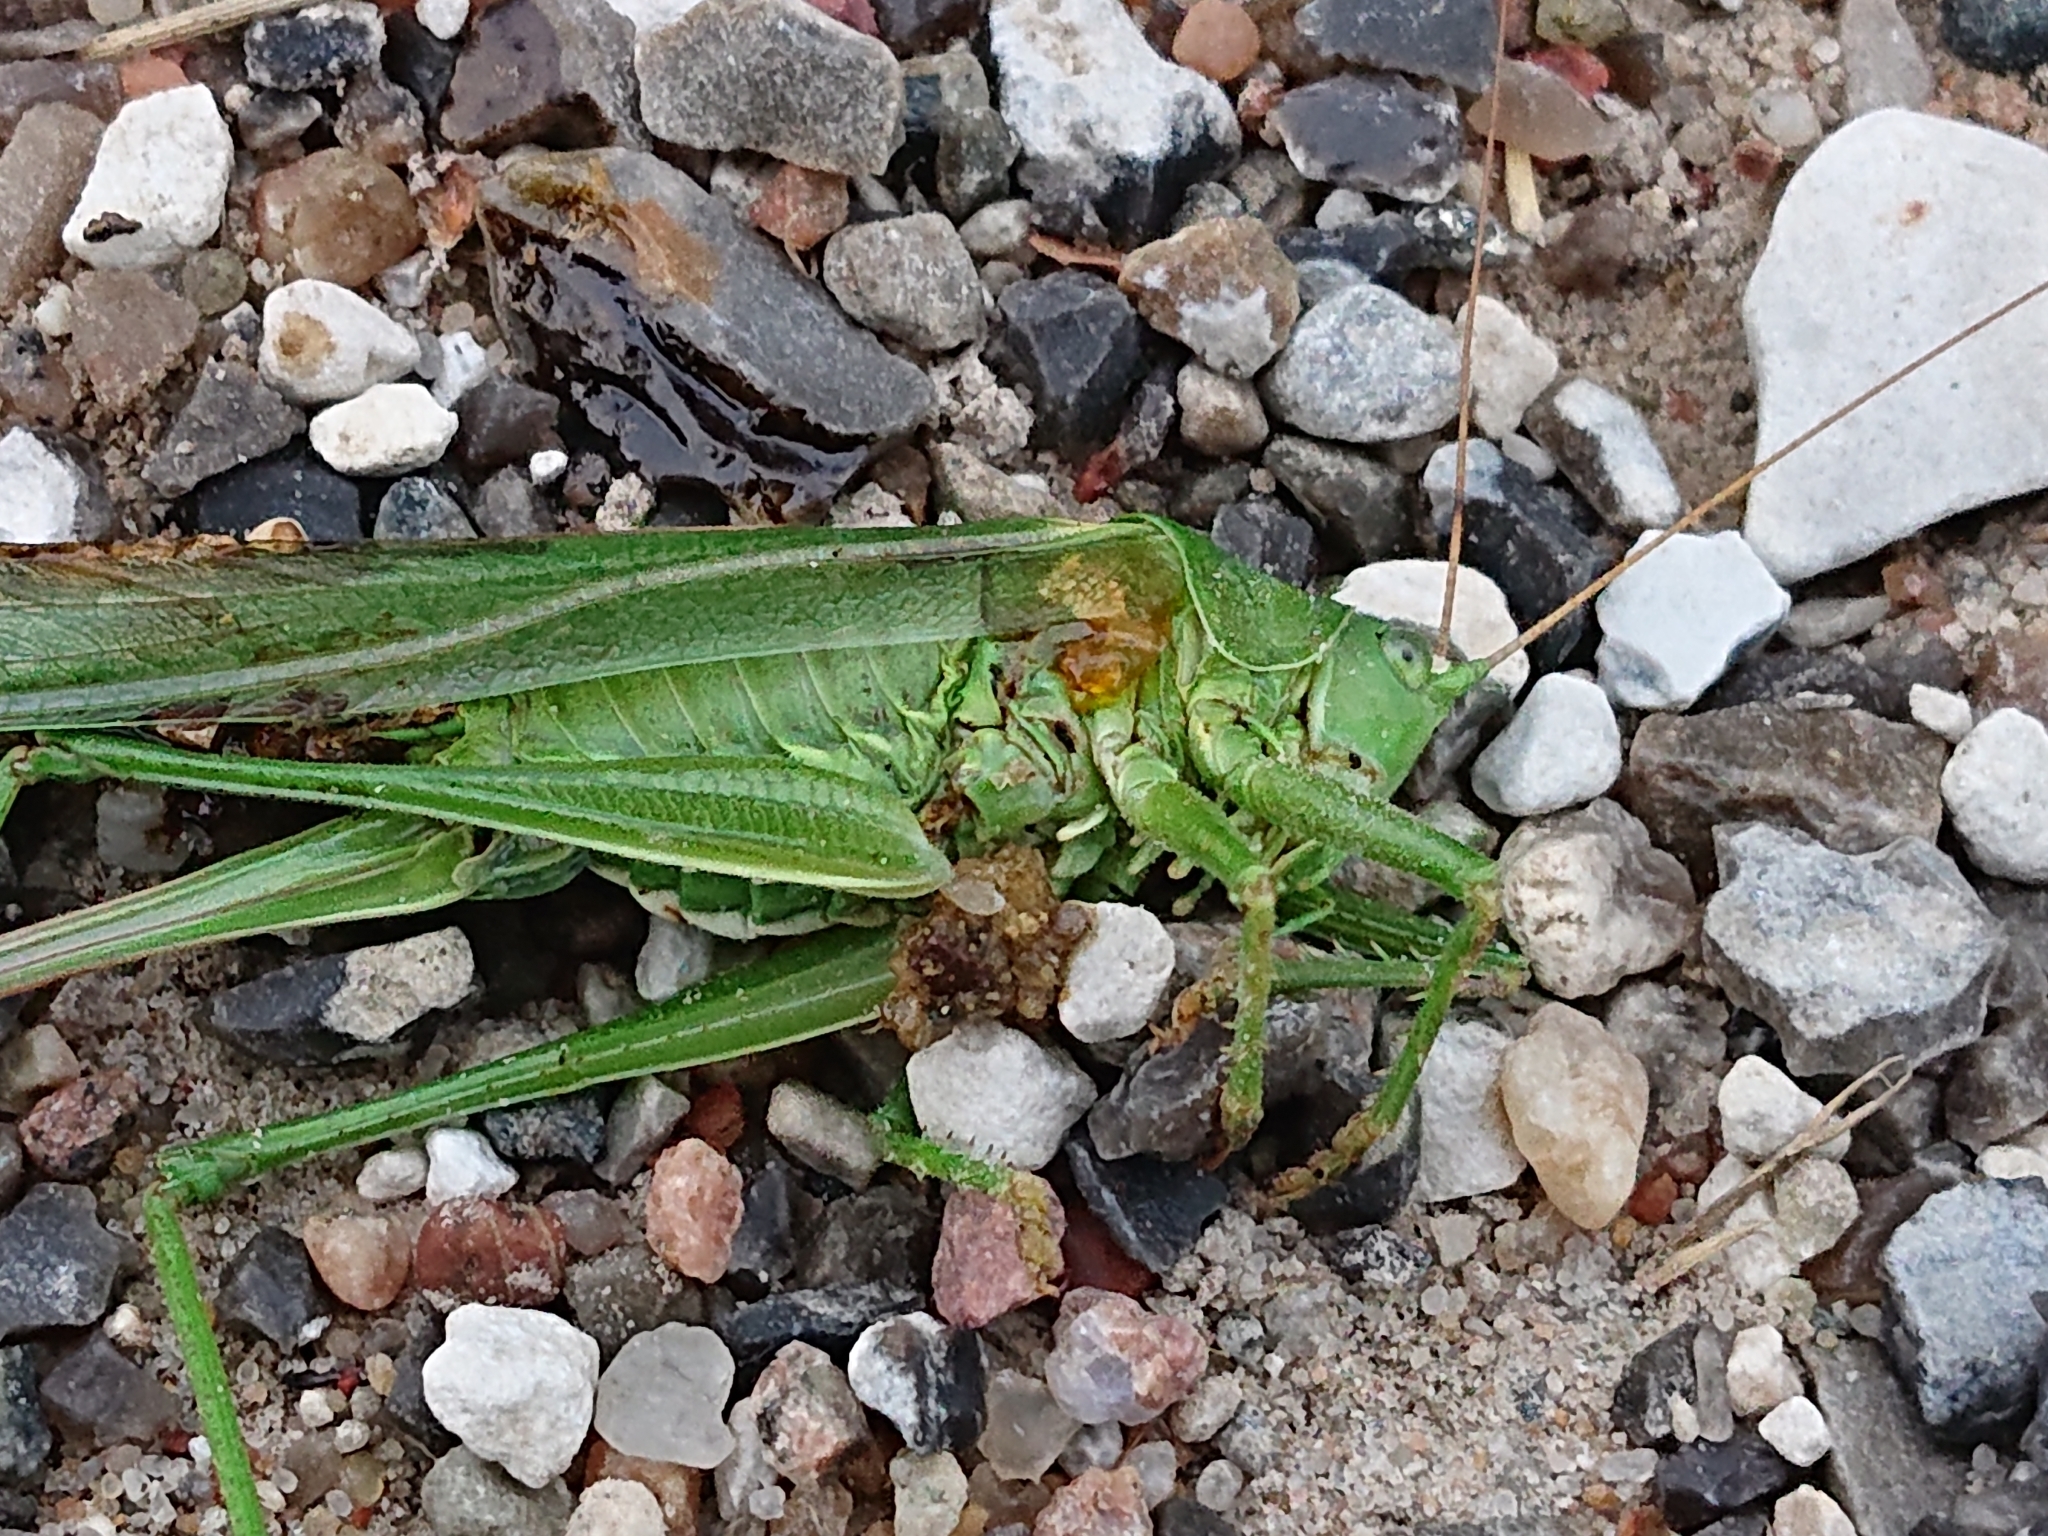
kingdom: Animalia
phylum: Arthropoda
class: Insecta
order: Orthoptera
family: Tettigoniidae
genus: Tettigonia
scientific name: Tettigonia viridissima
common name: Great green bush-cricket
